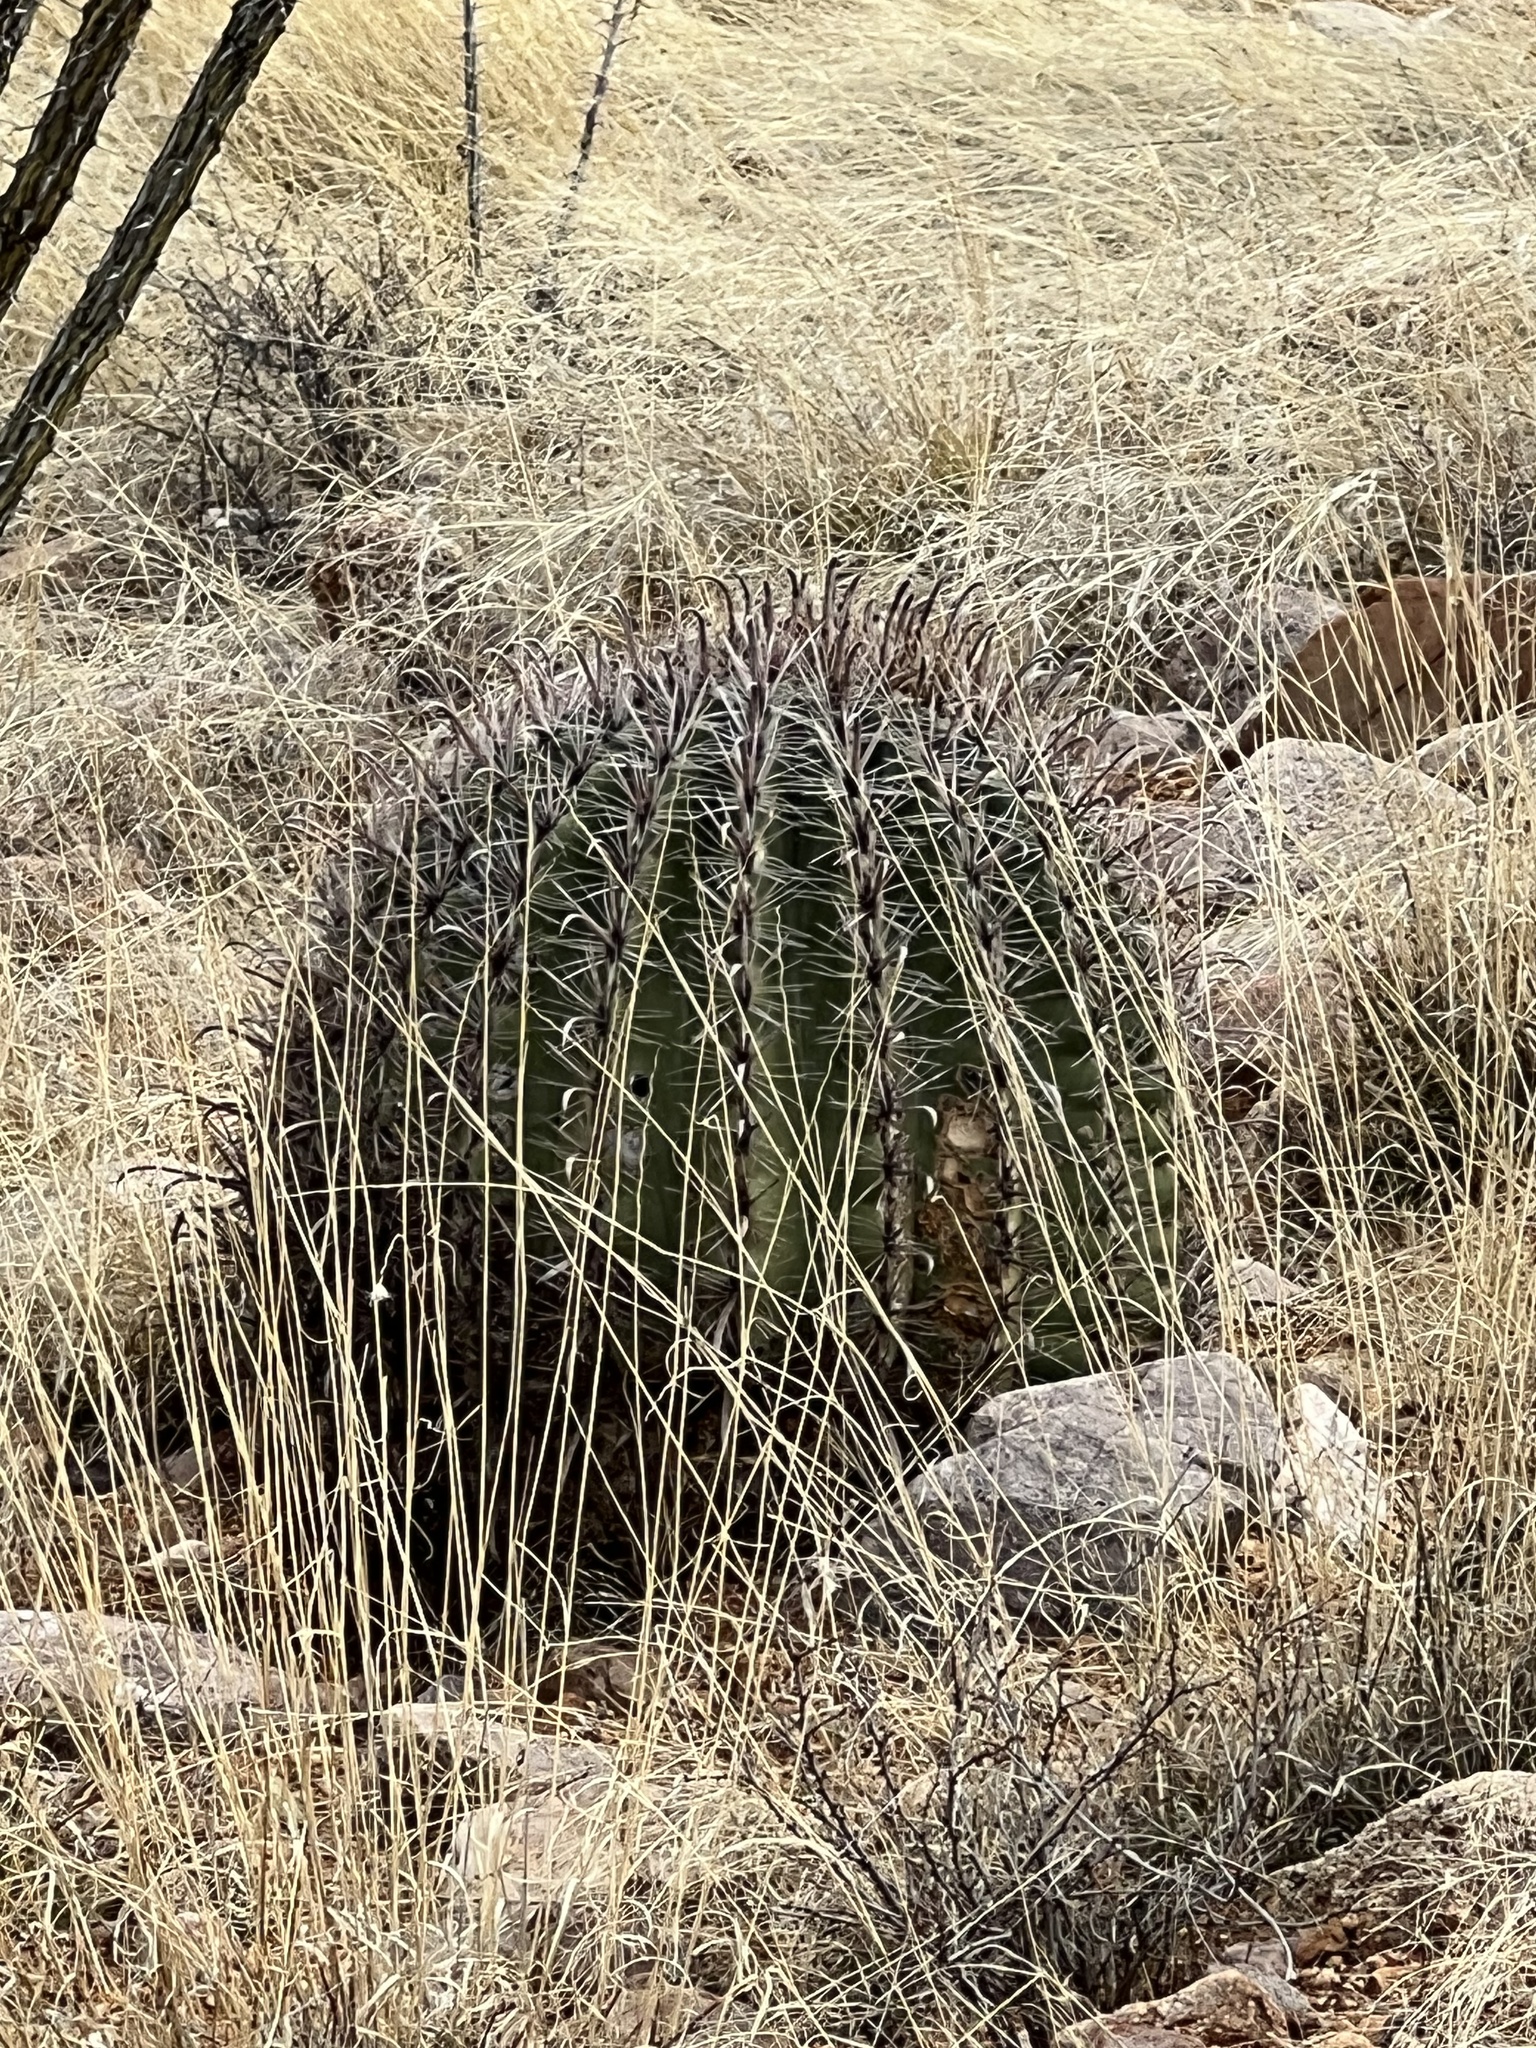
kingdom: Plantae
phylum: Tracheophyta
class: Magnoliopsida
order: Caryophyllales
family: Cactaceae
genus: Ferocactus
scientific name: Ferocactus wislizeni
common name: Candy barrel cactus
